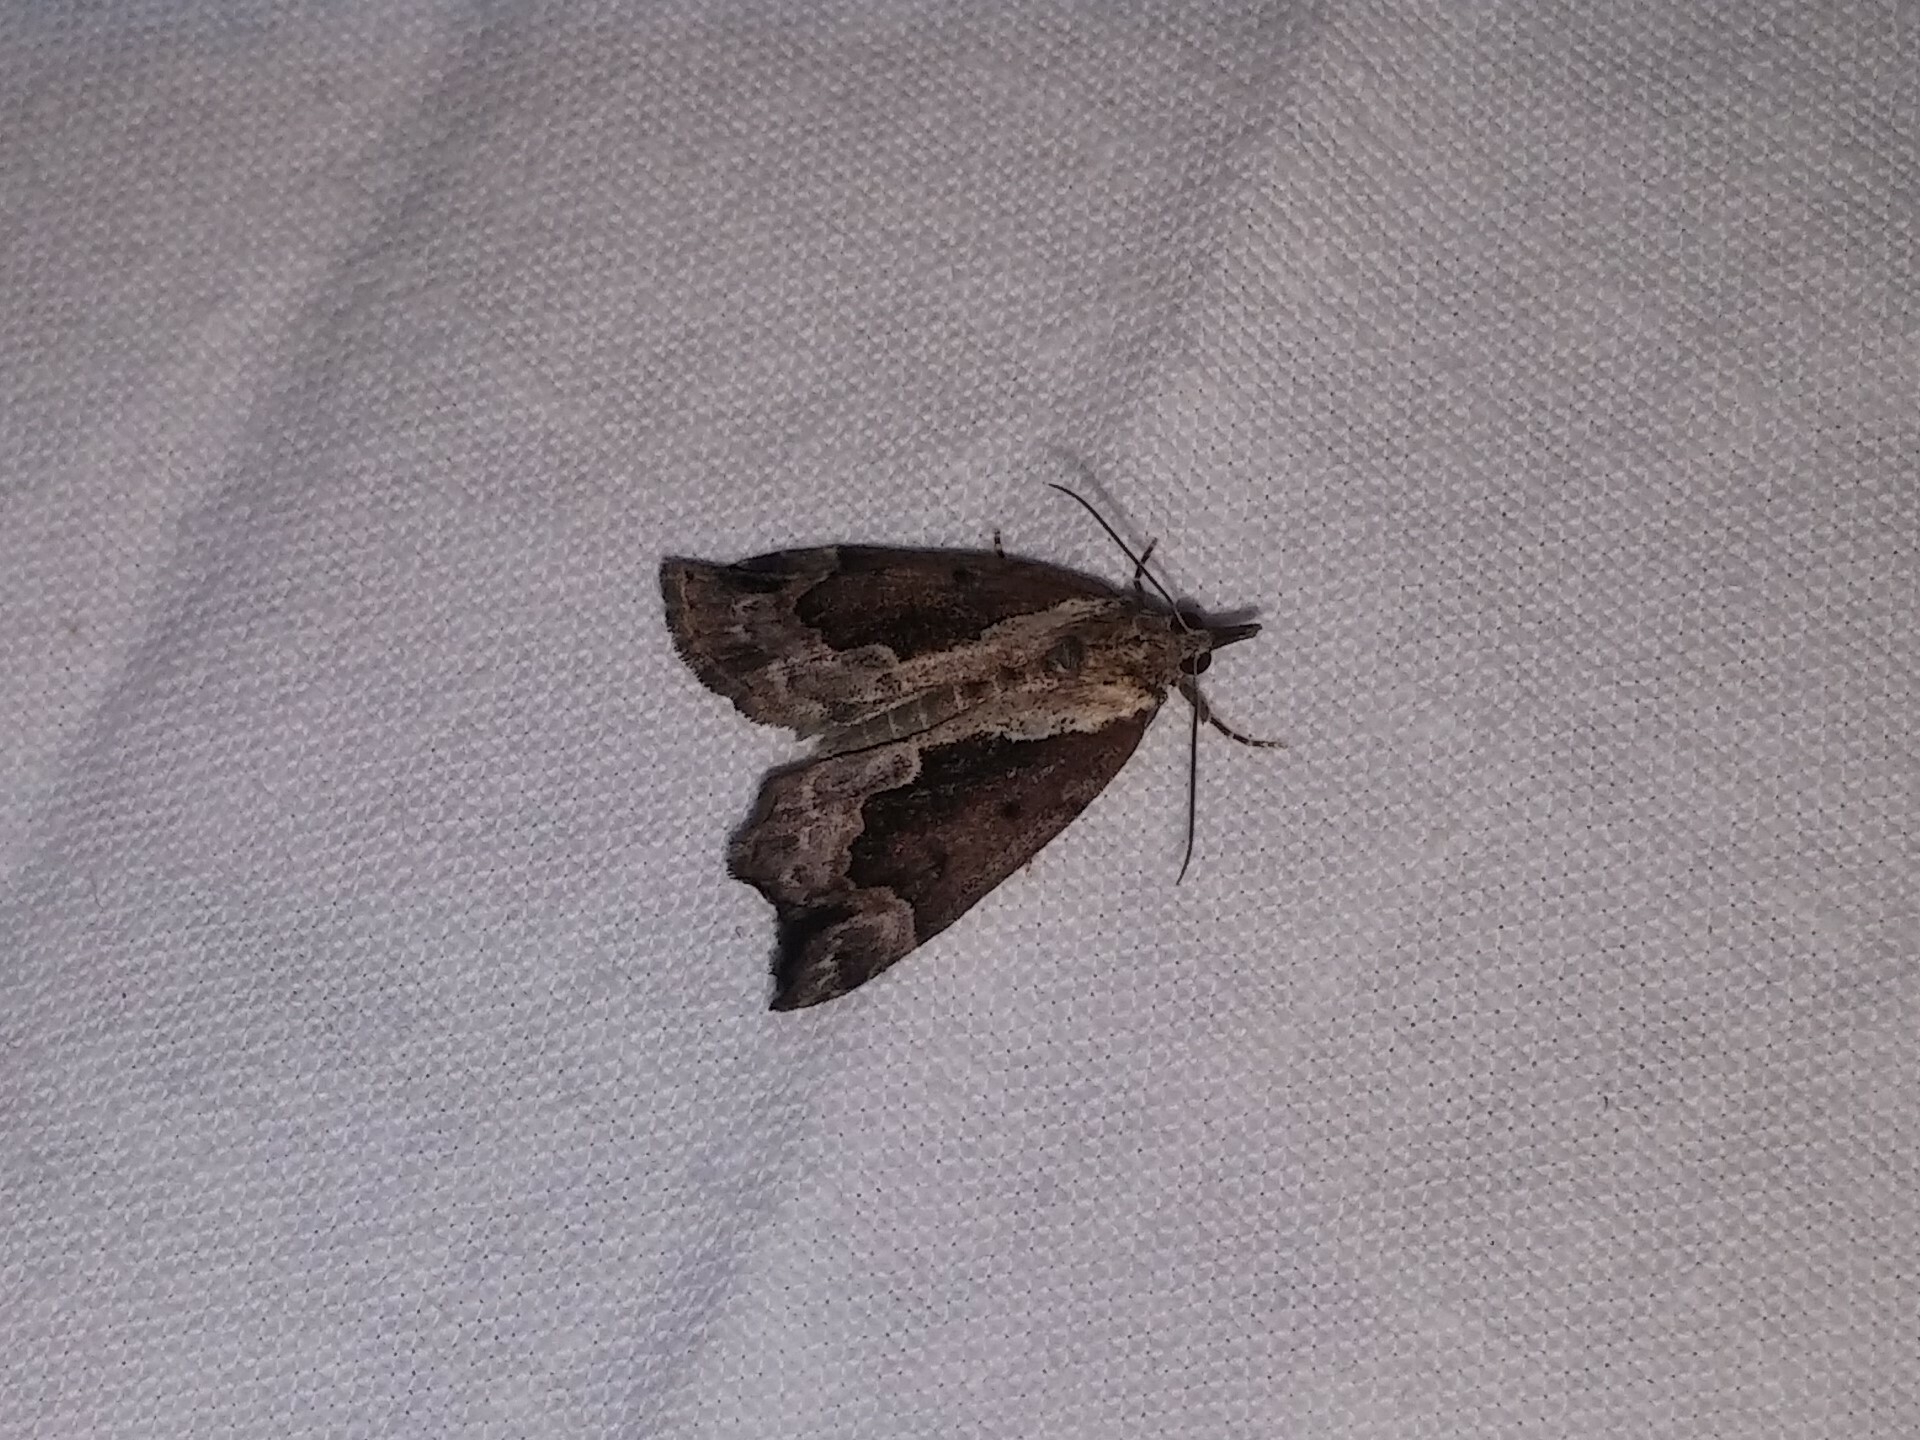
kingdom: Animalia
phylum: Arthropoda
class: Insecta
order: Lepidoptera
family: Erebidae
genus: Hypena
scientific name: Hypena baltimoralis
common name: Baltimore snout
